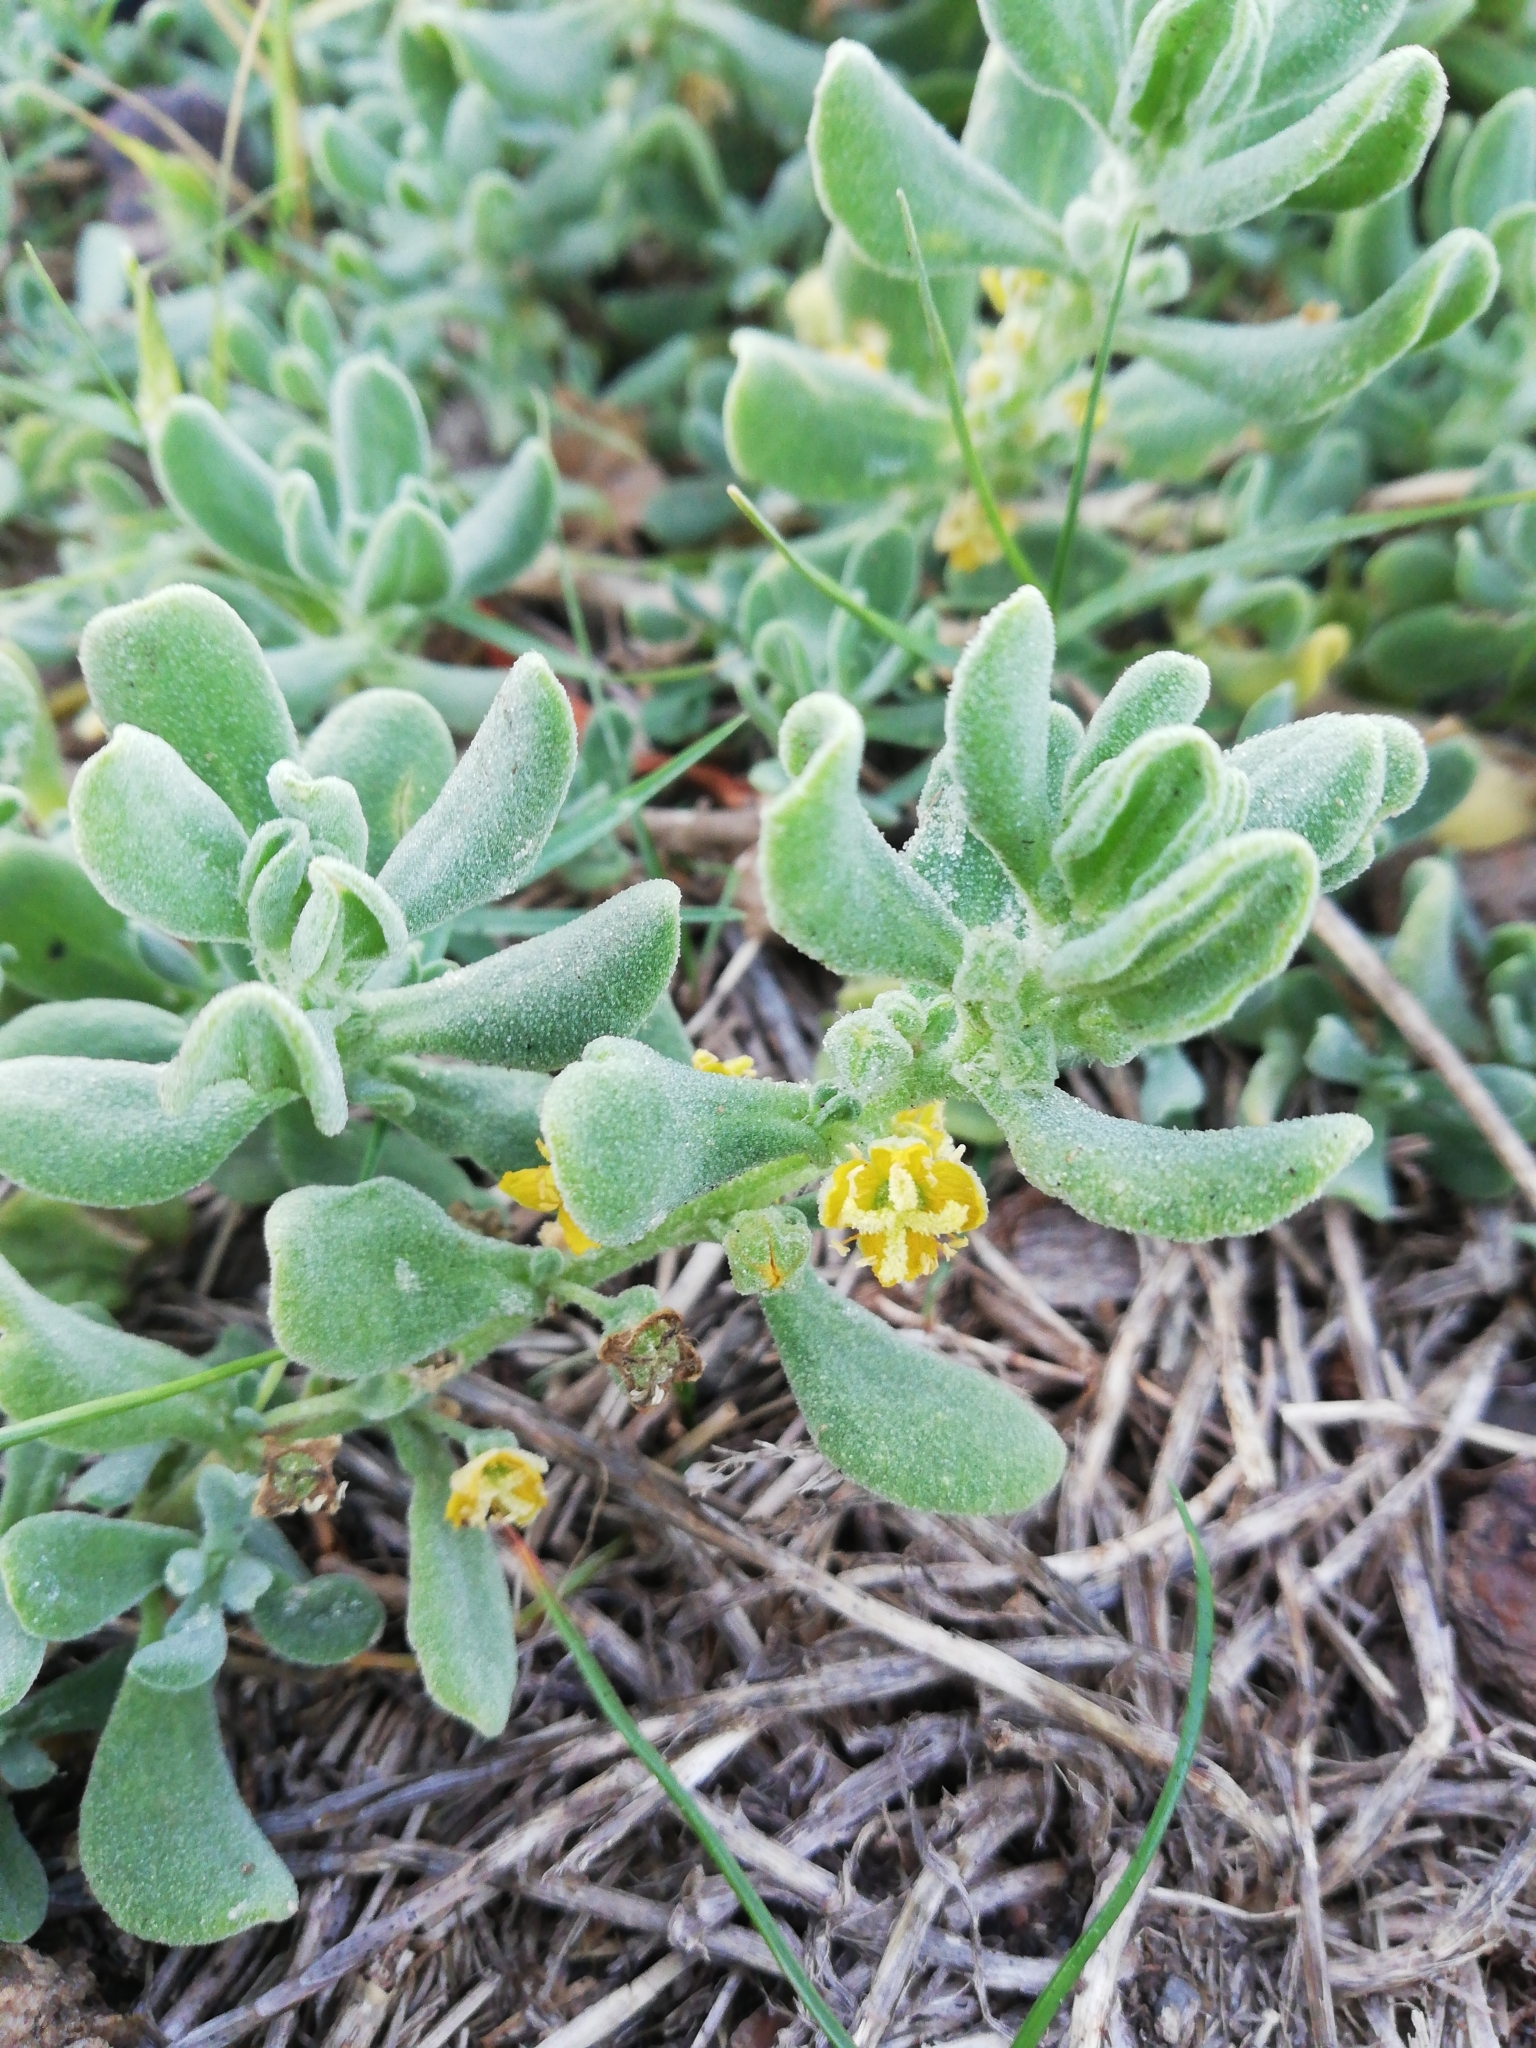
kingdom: Plantae
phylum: Tracheophyta
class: Magnoliopsida
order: Caryophyllales
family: Aizoaceae
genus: Tetragonia
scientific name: Tetragonia decumbens
